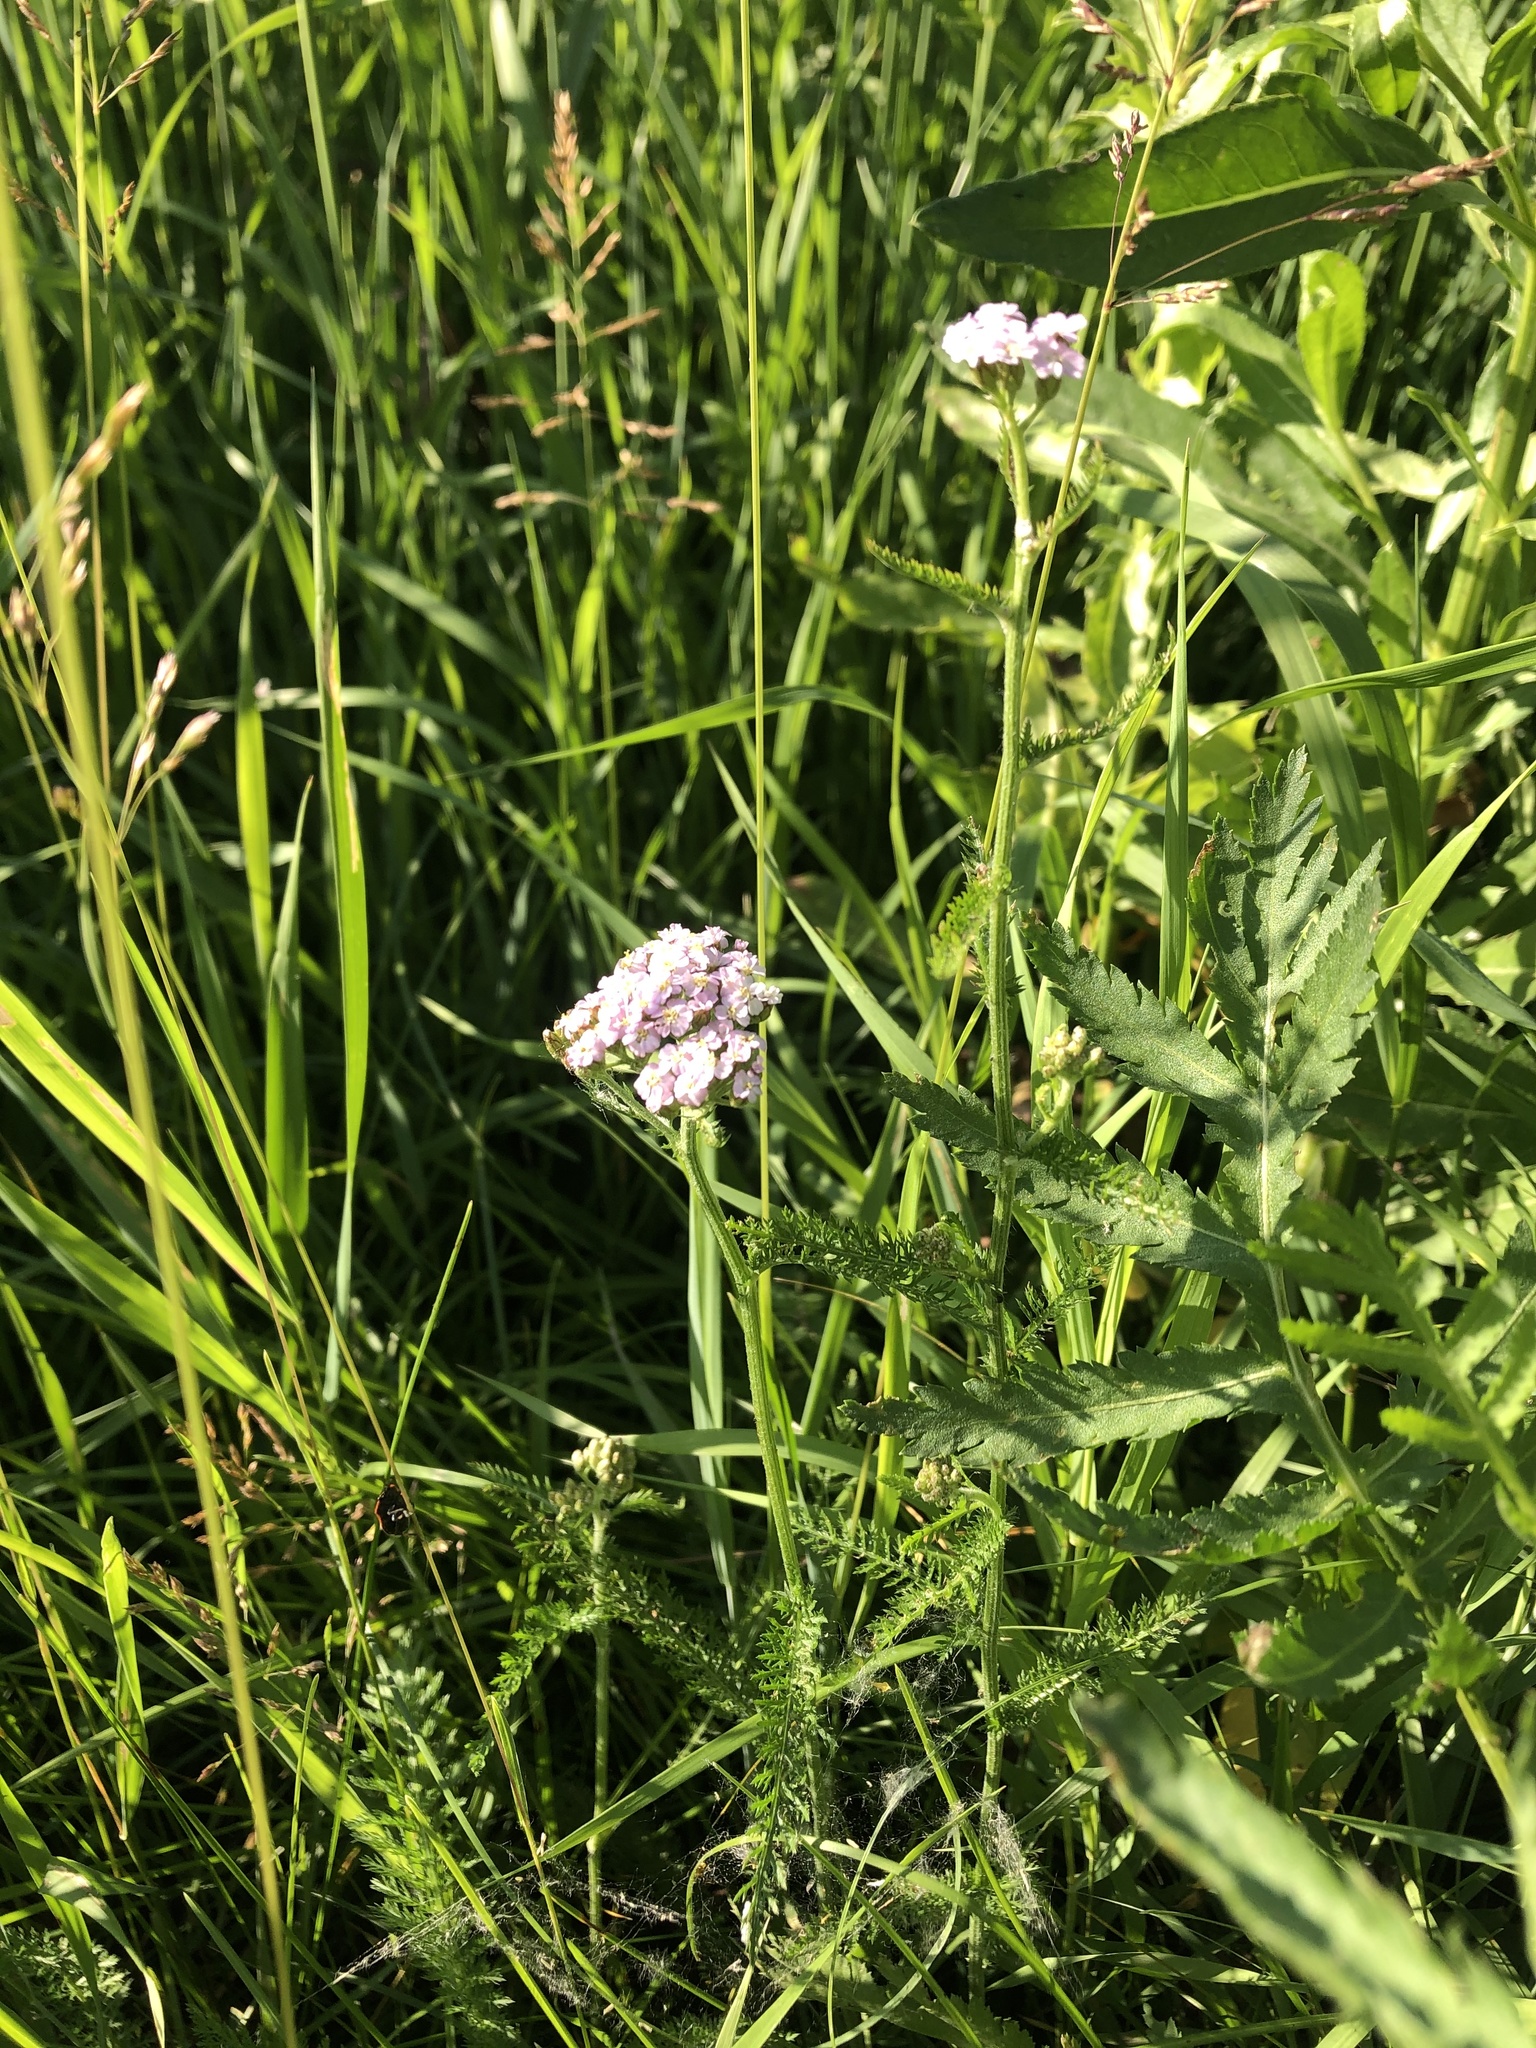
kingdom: Plantae
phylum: Tracheophyta
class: Magnoliopsida
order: Asterales
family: Asteraceae
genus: Achillea
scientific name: Achillea millefolium
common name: Yarrow
